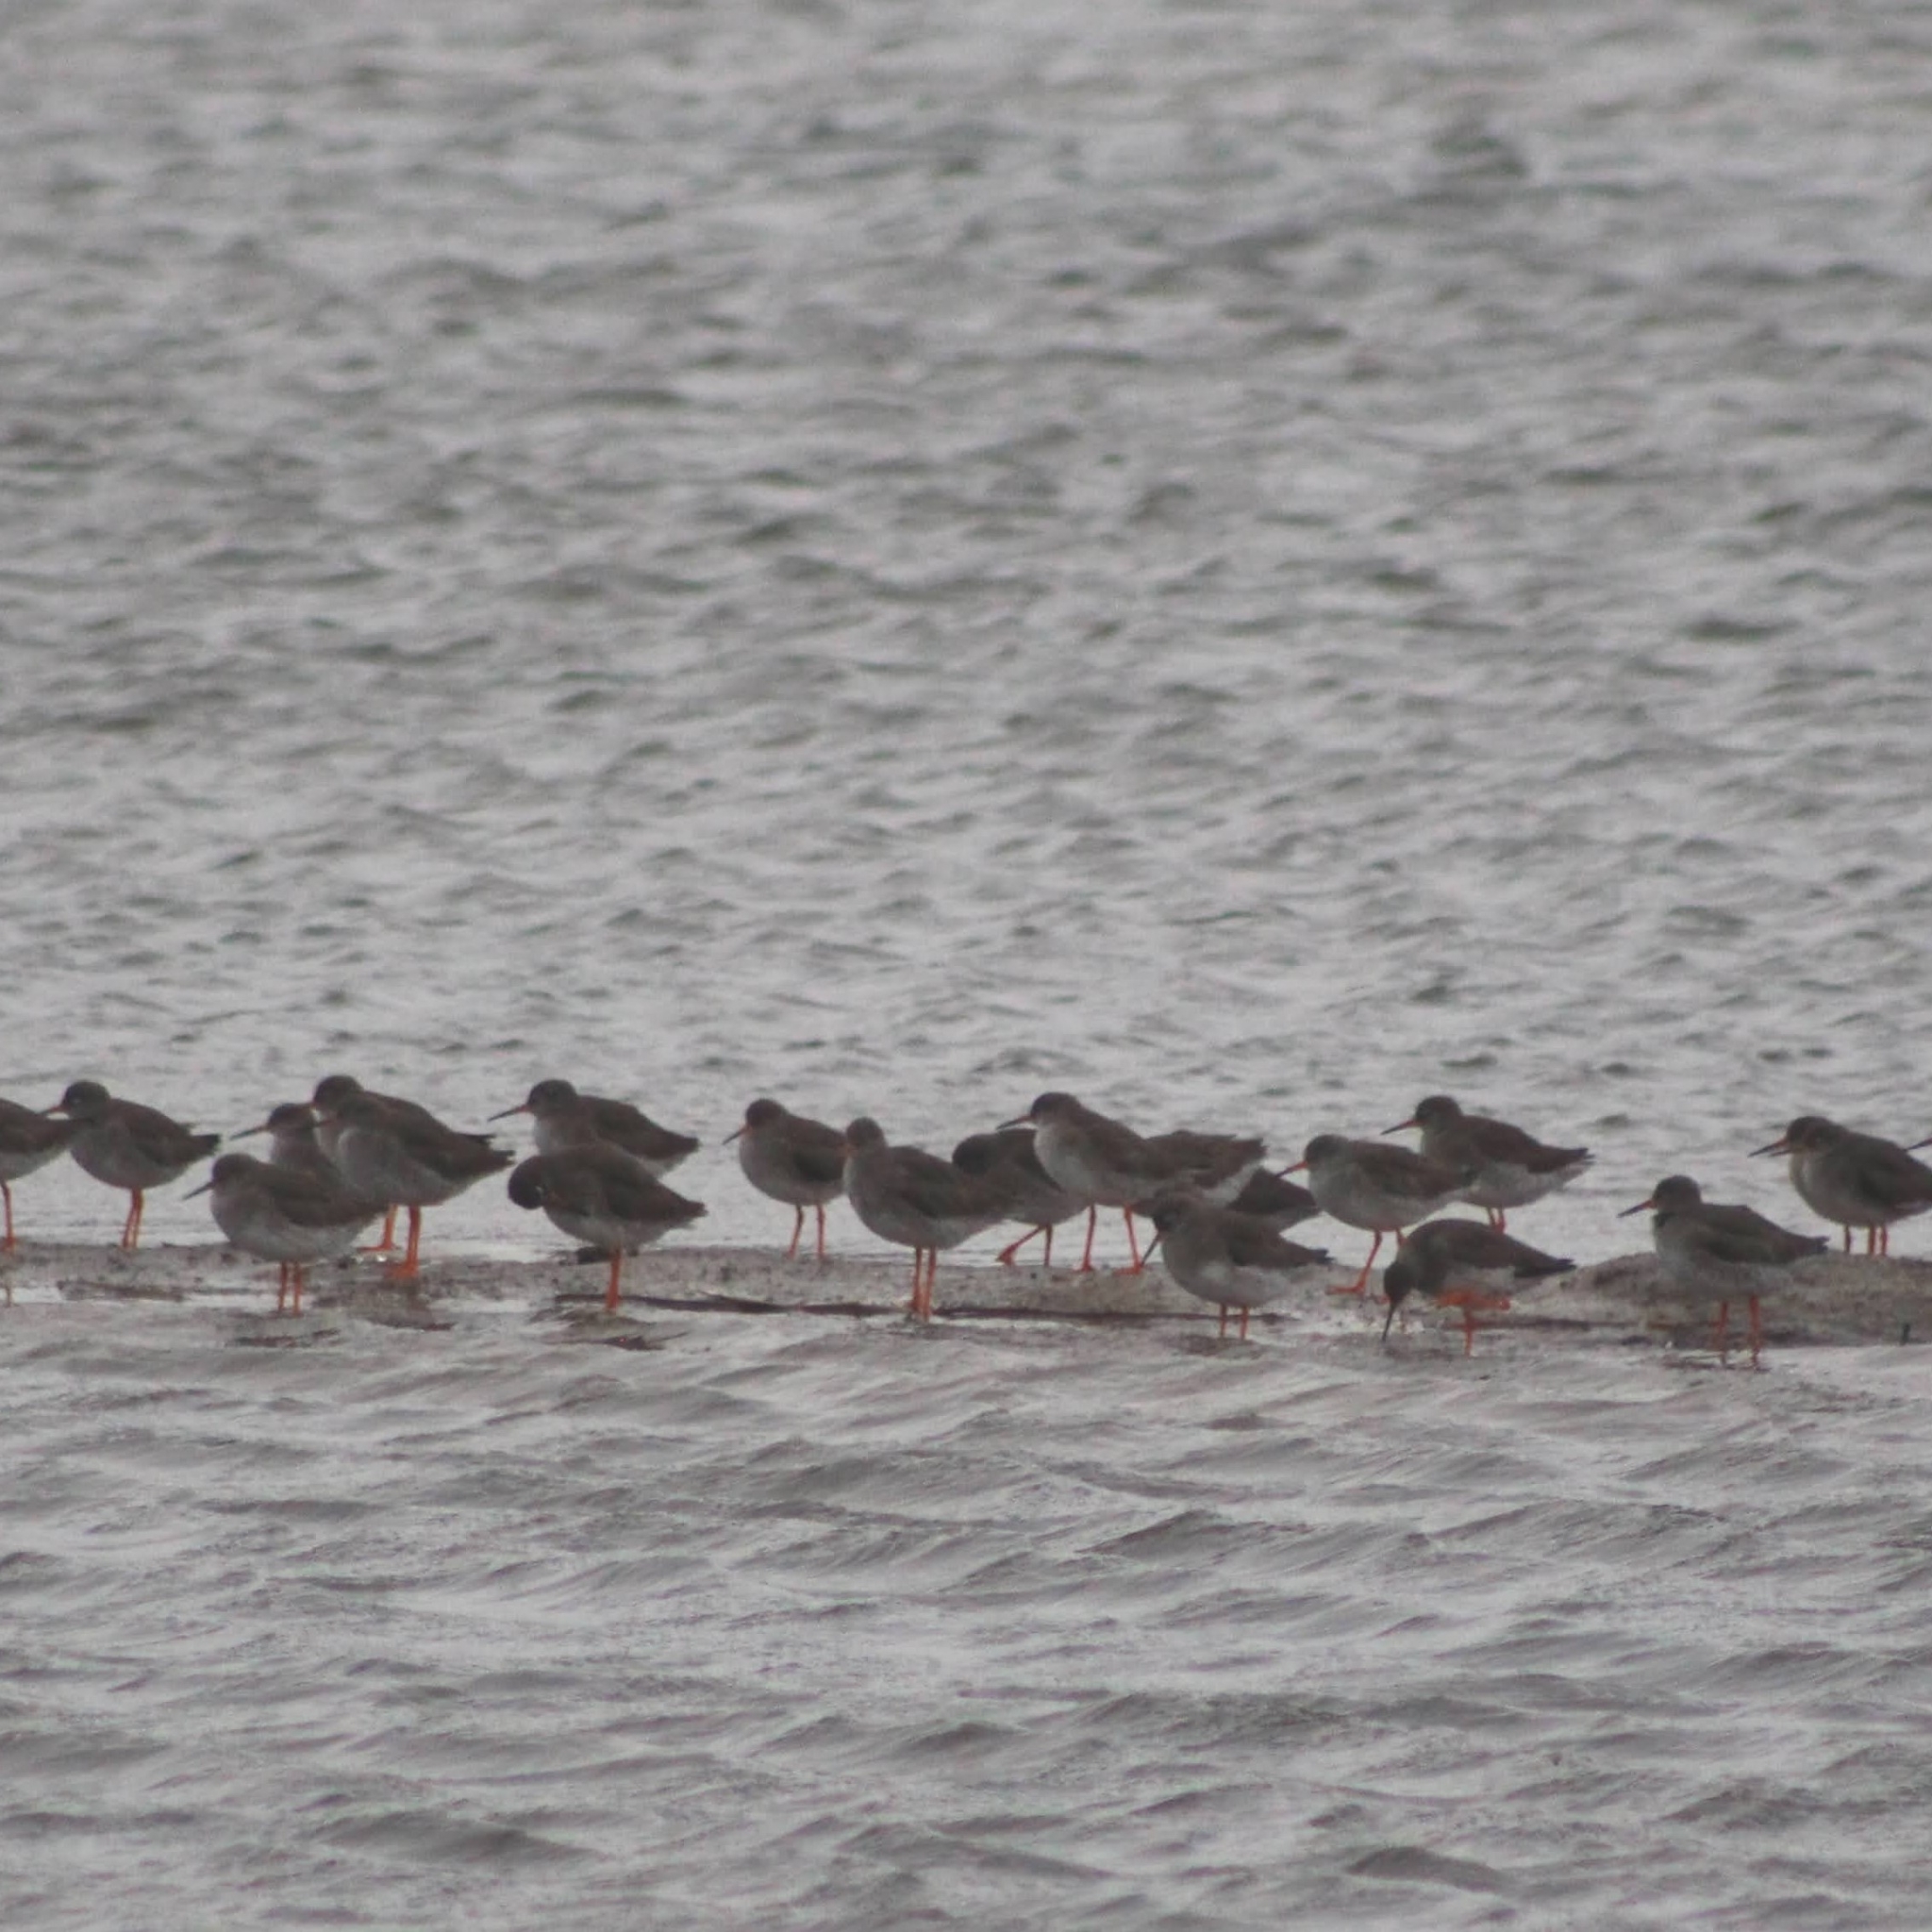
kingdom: Animalia
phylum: Chordata
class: Aves
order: Charadriiformes
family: Scolopacidae
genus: Tringa
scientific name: Tringa totanus
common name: Common redshank
